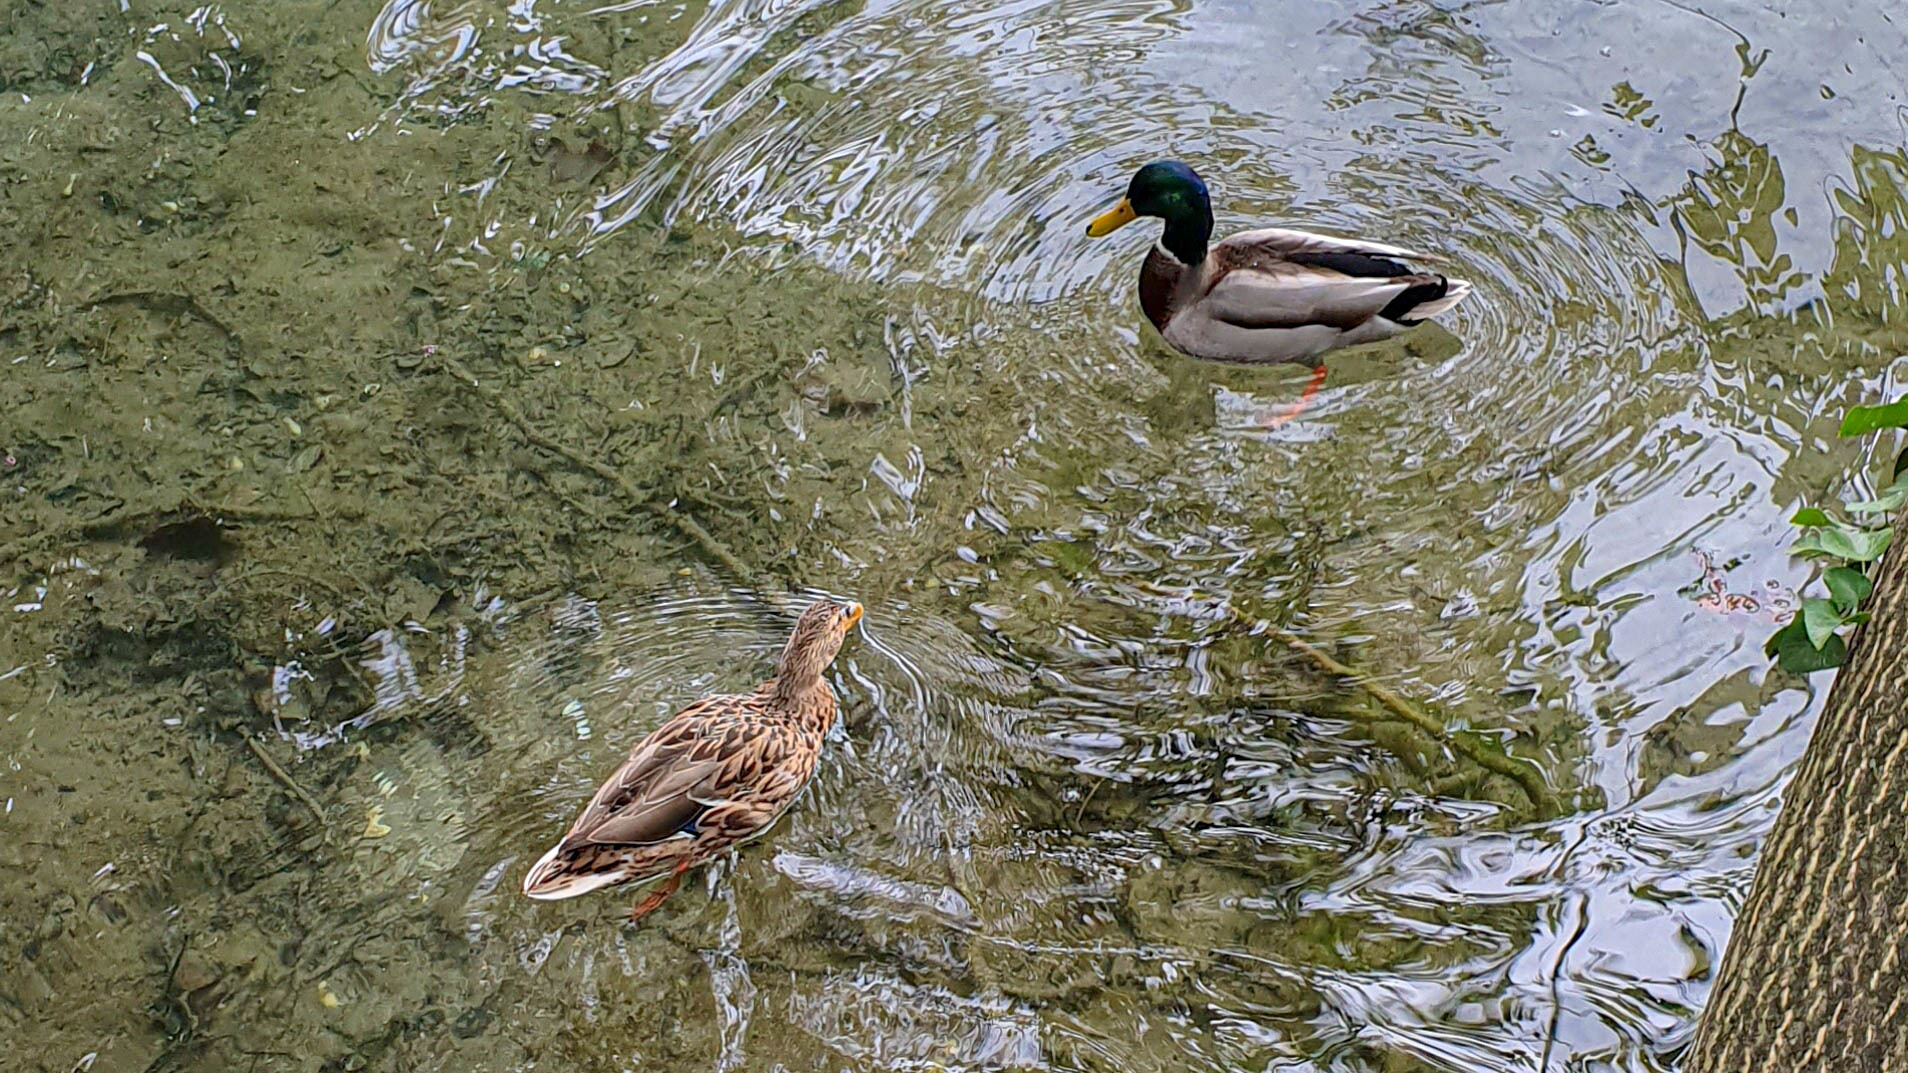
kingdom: Animalia
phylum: Chordata
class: Aves
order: Anseriformes
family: Anatidae
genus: Anas
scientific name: Anas platyrhynchos
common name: Mallard
